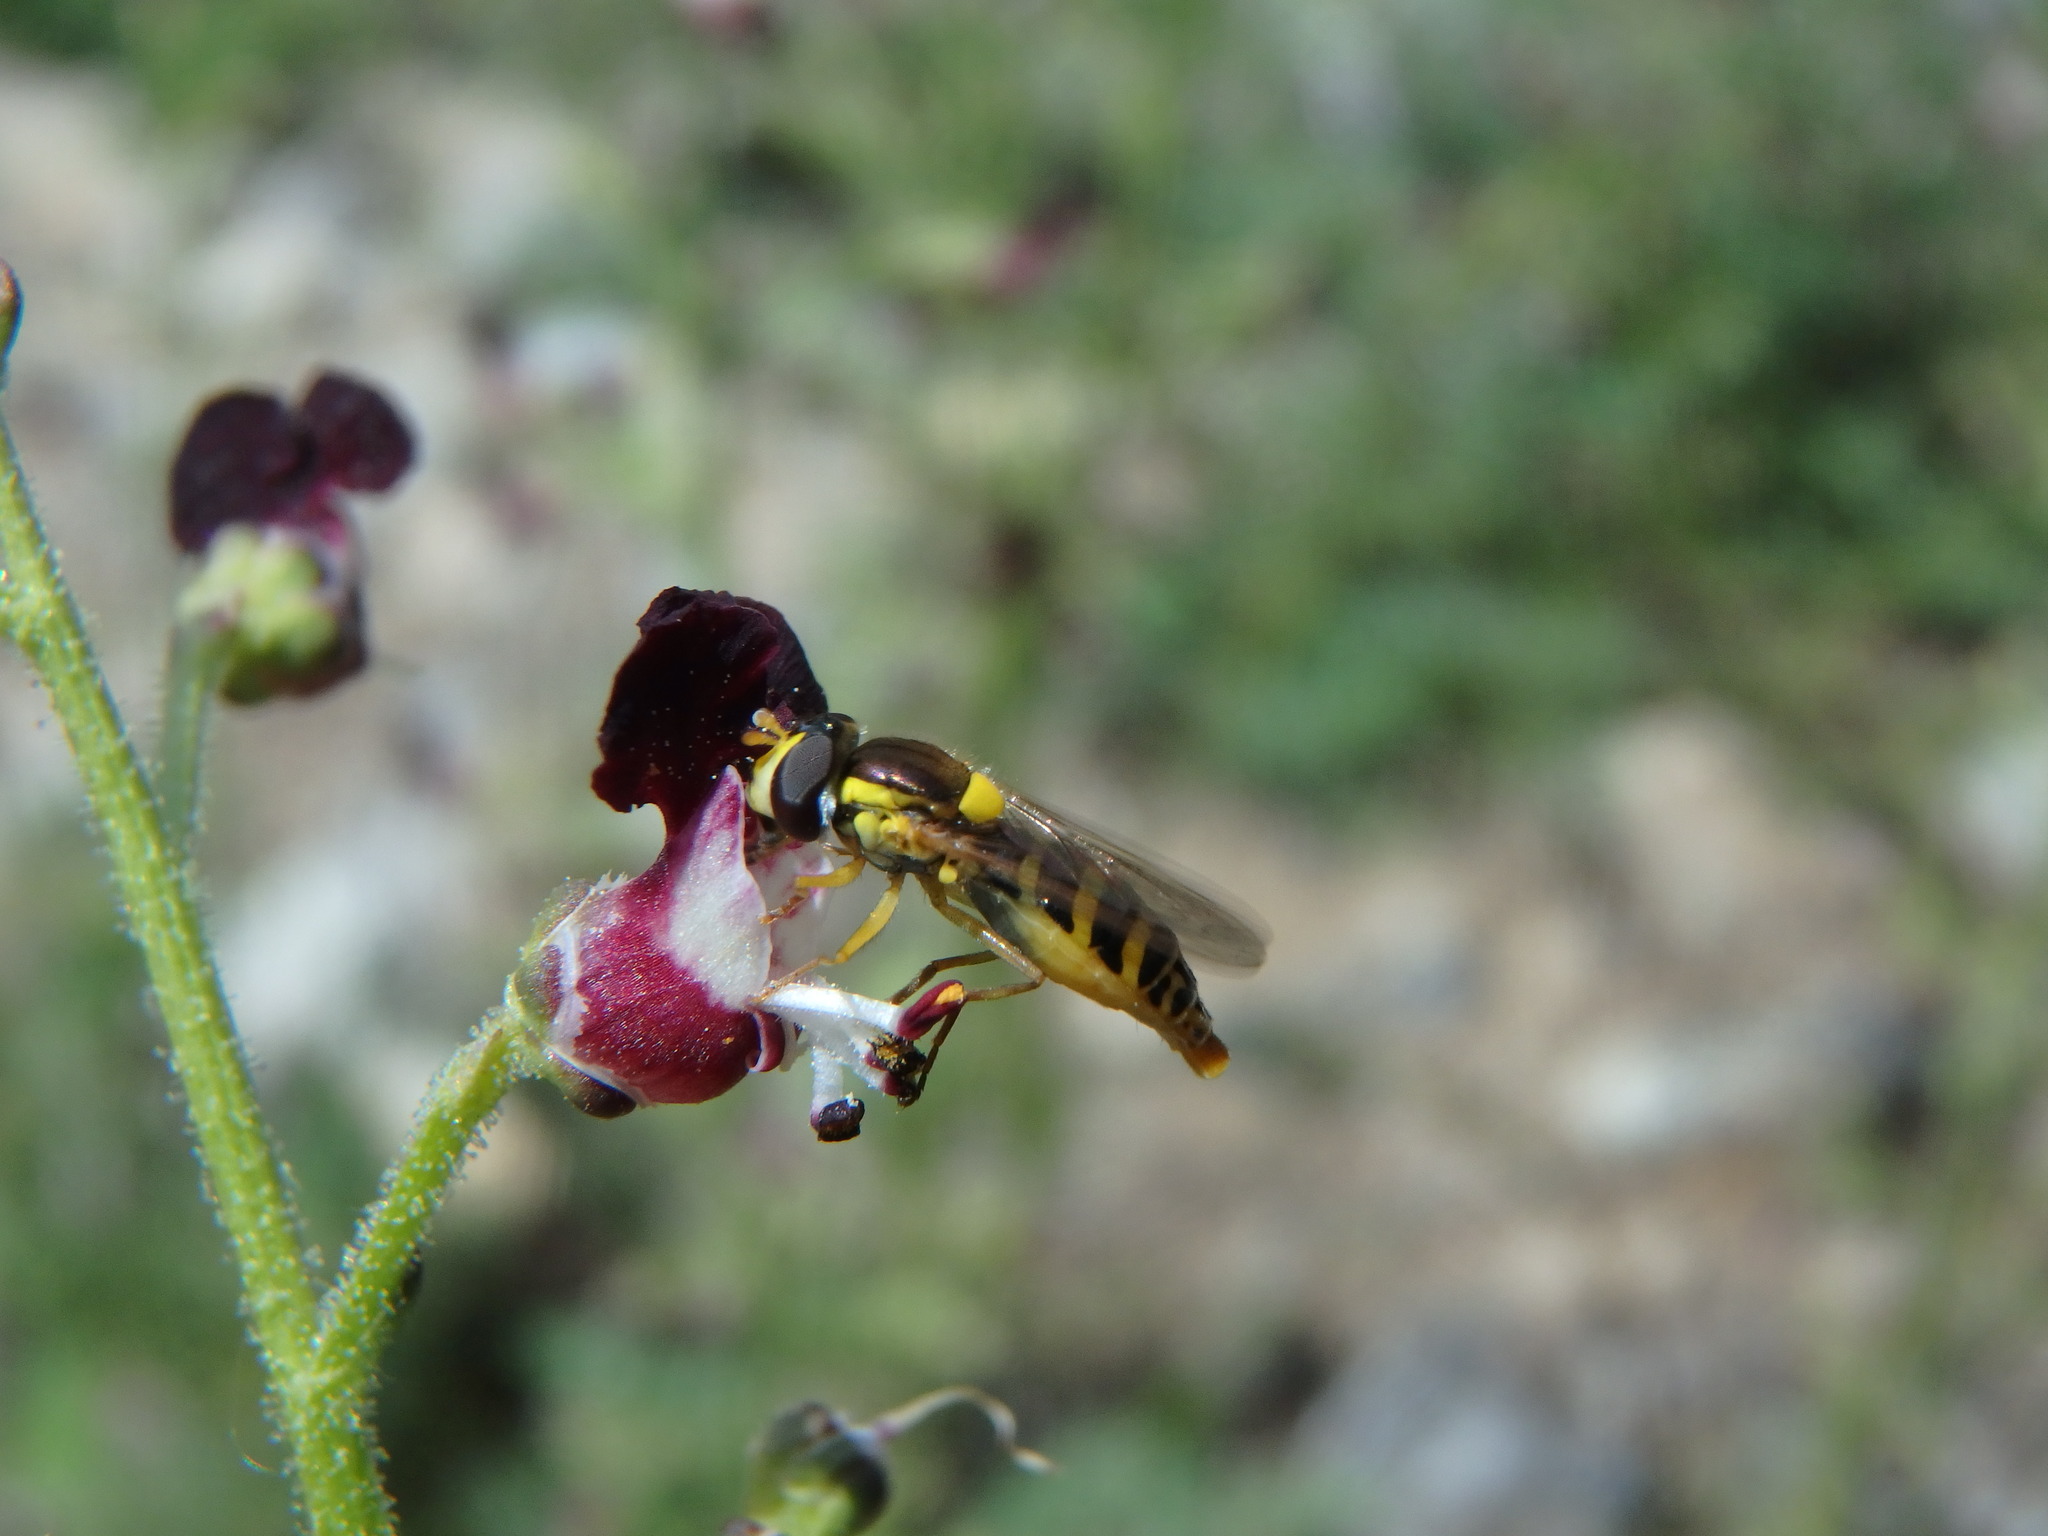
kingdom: Animalia
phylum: Arthropoda
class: Insecta
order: Diptera
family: Syrphidae
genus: Sphaerophoria
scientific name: Sphaerophoria
